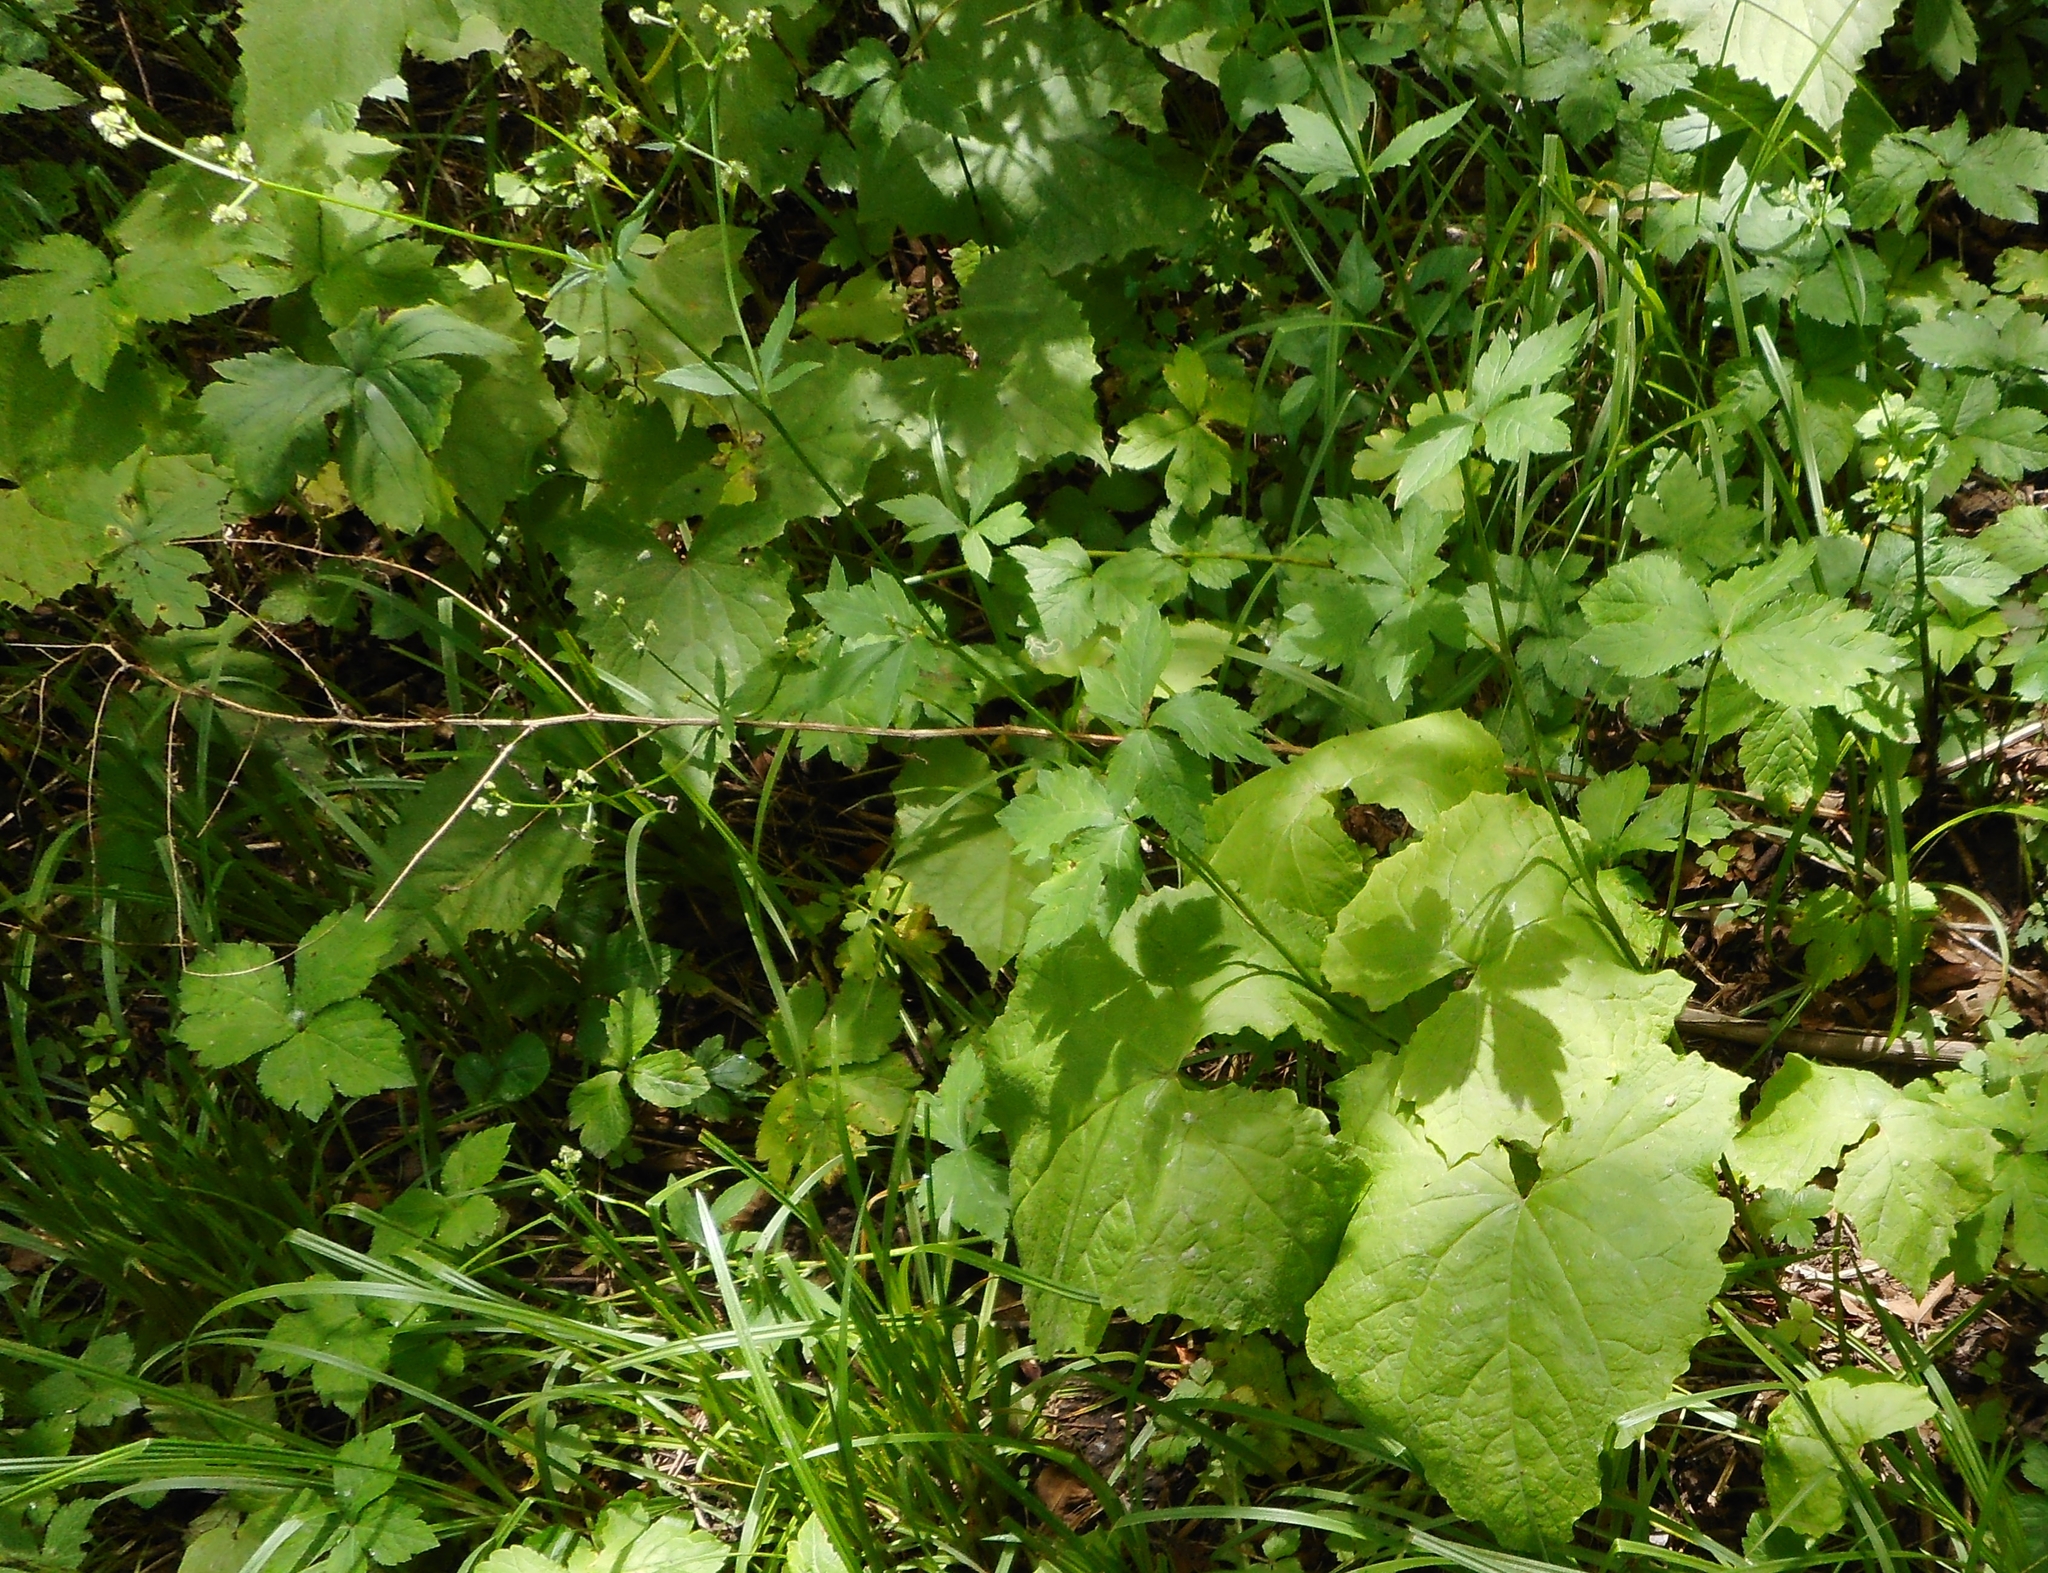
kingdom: Plantae
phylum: Tracheophyta
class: Magnoliopsida
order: Apiales
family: Apiaceae
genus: Sanicula
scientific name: Sanicula chinensis
